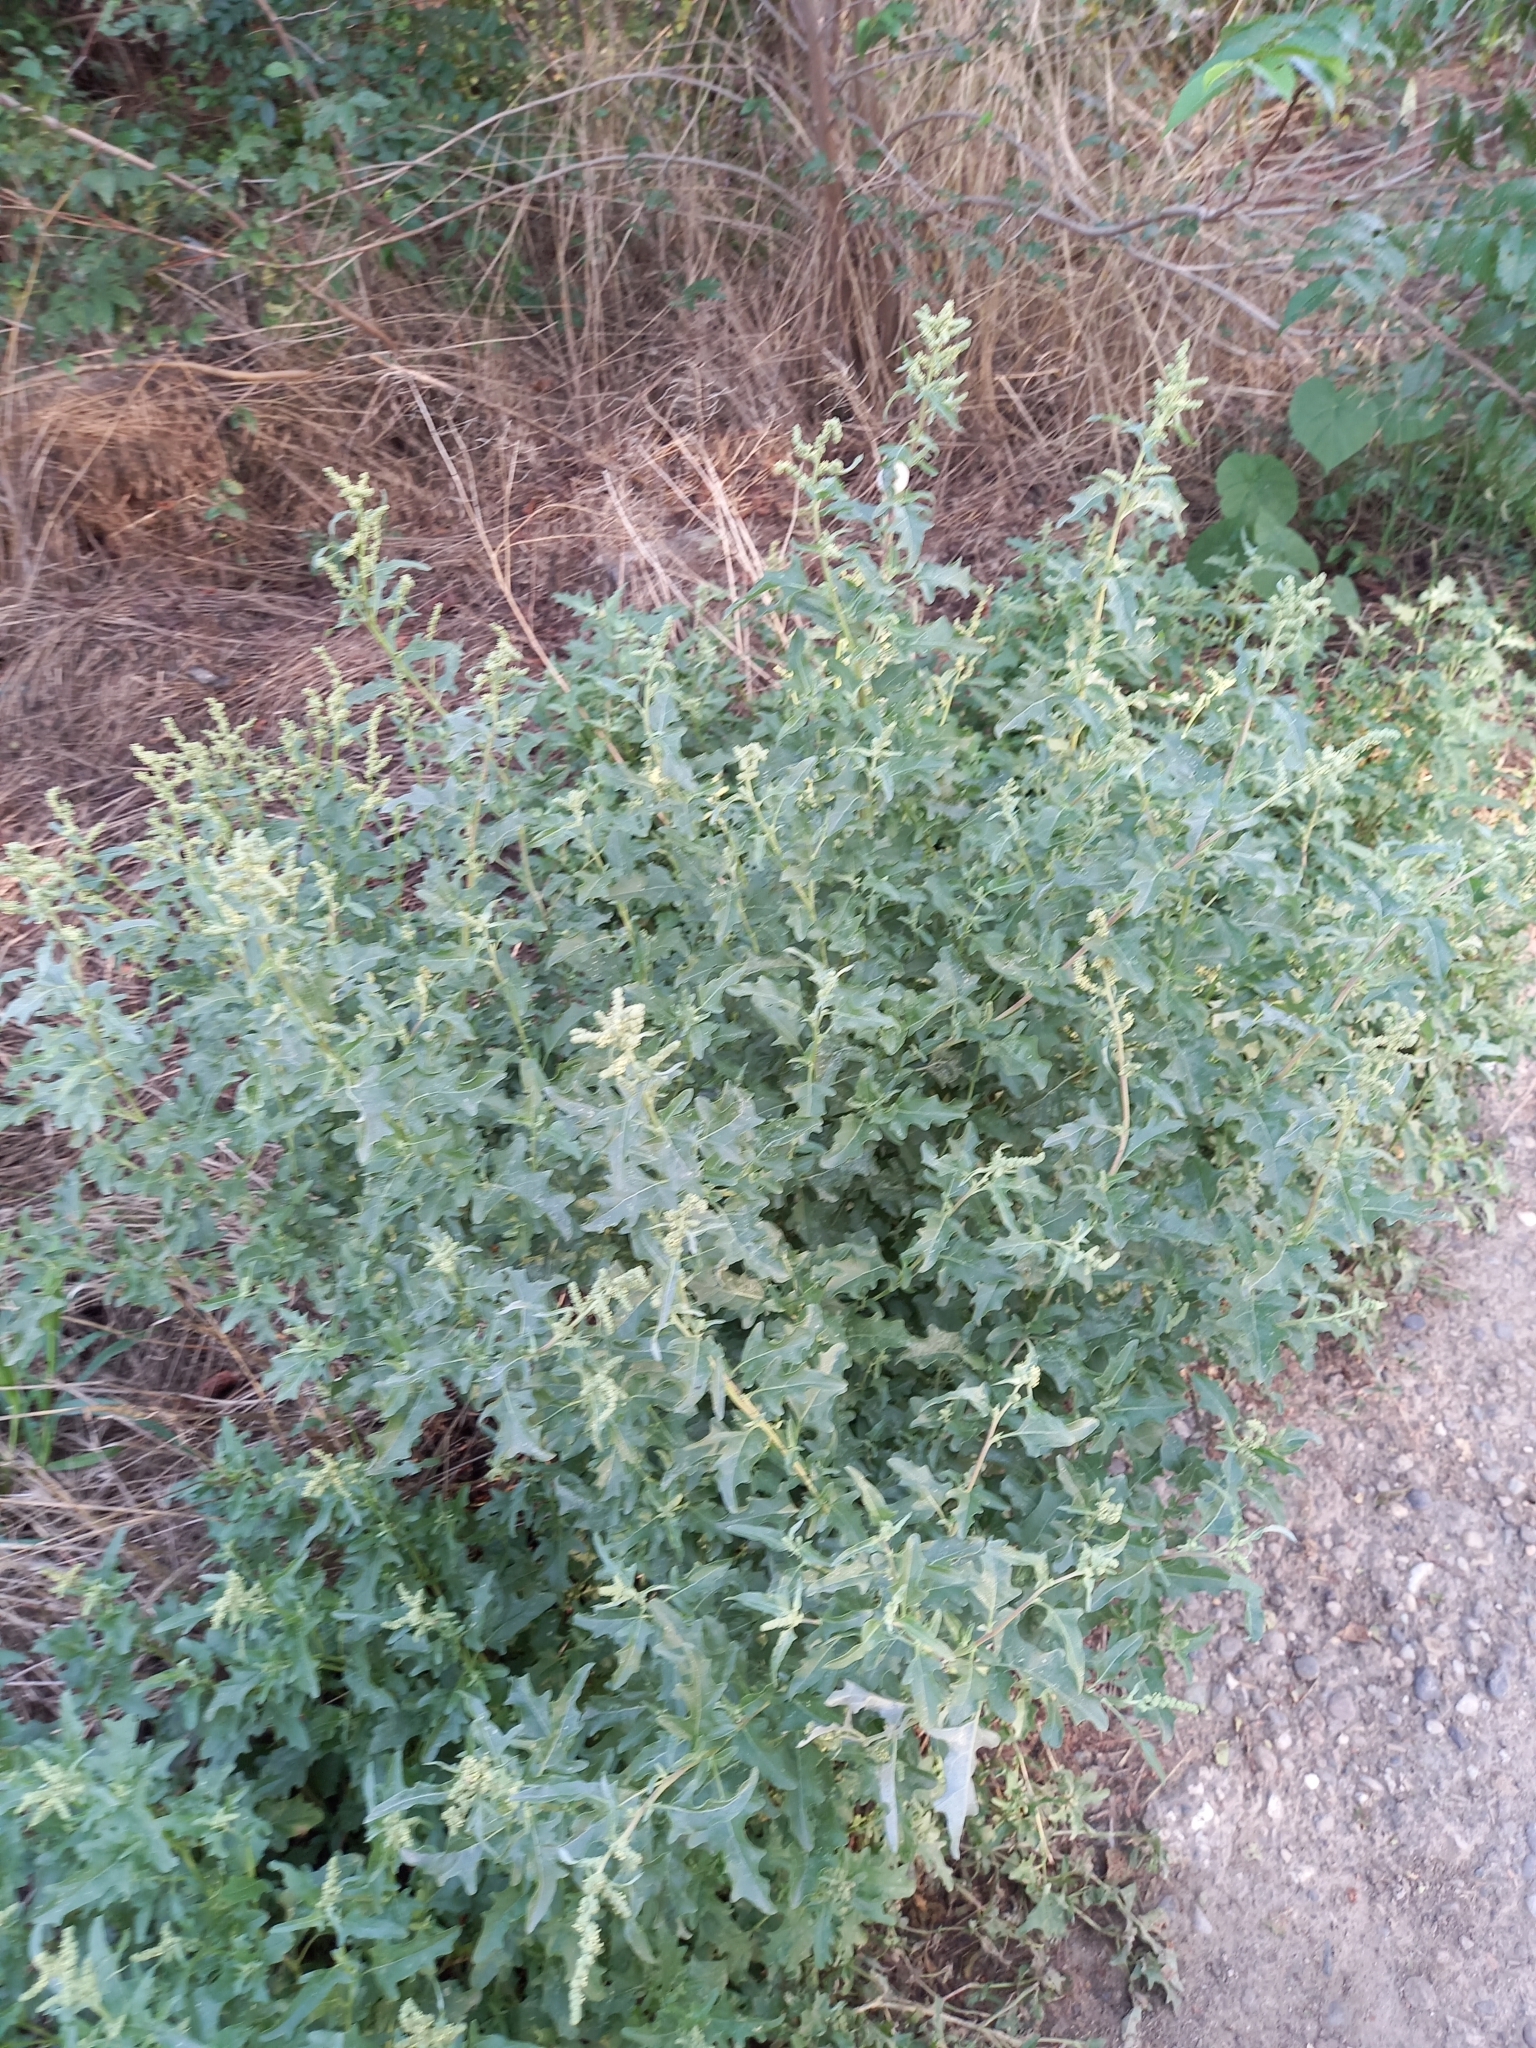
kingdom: Plantae
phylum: Tracheophyta
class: Magnoliopsida
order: Caryophyllales
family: Amaranthaceae
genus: Atriplex
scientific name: Atriplex tatarica
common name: Tatarian orache
